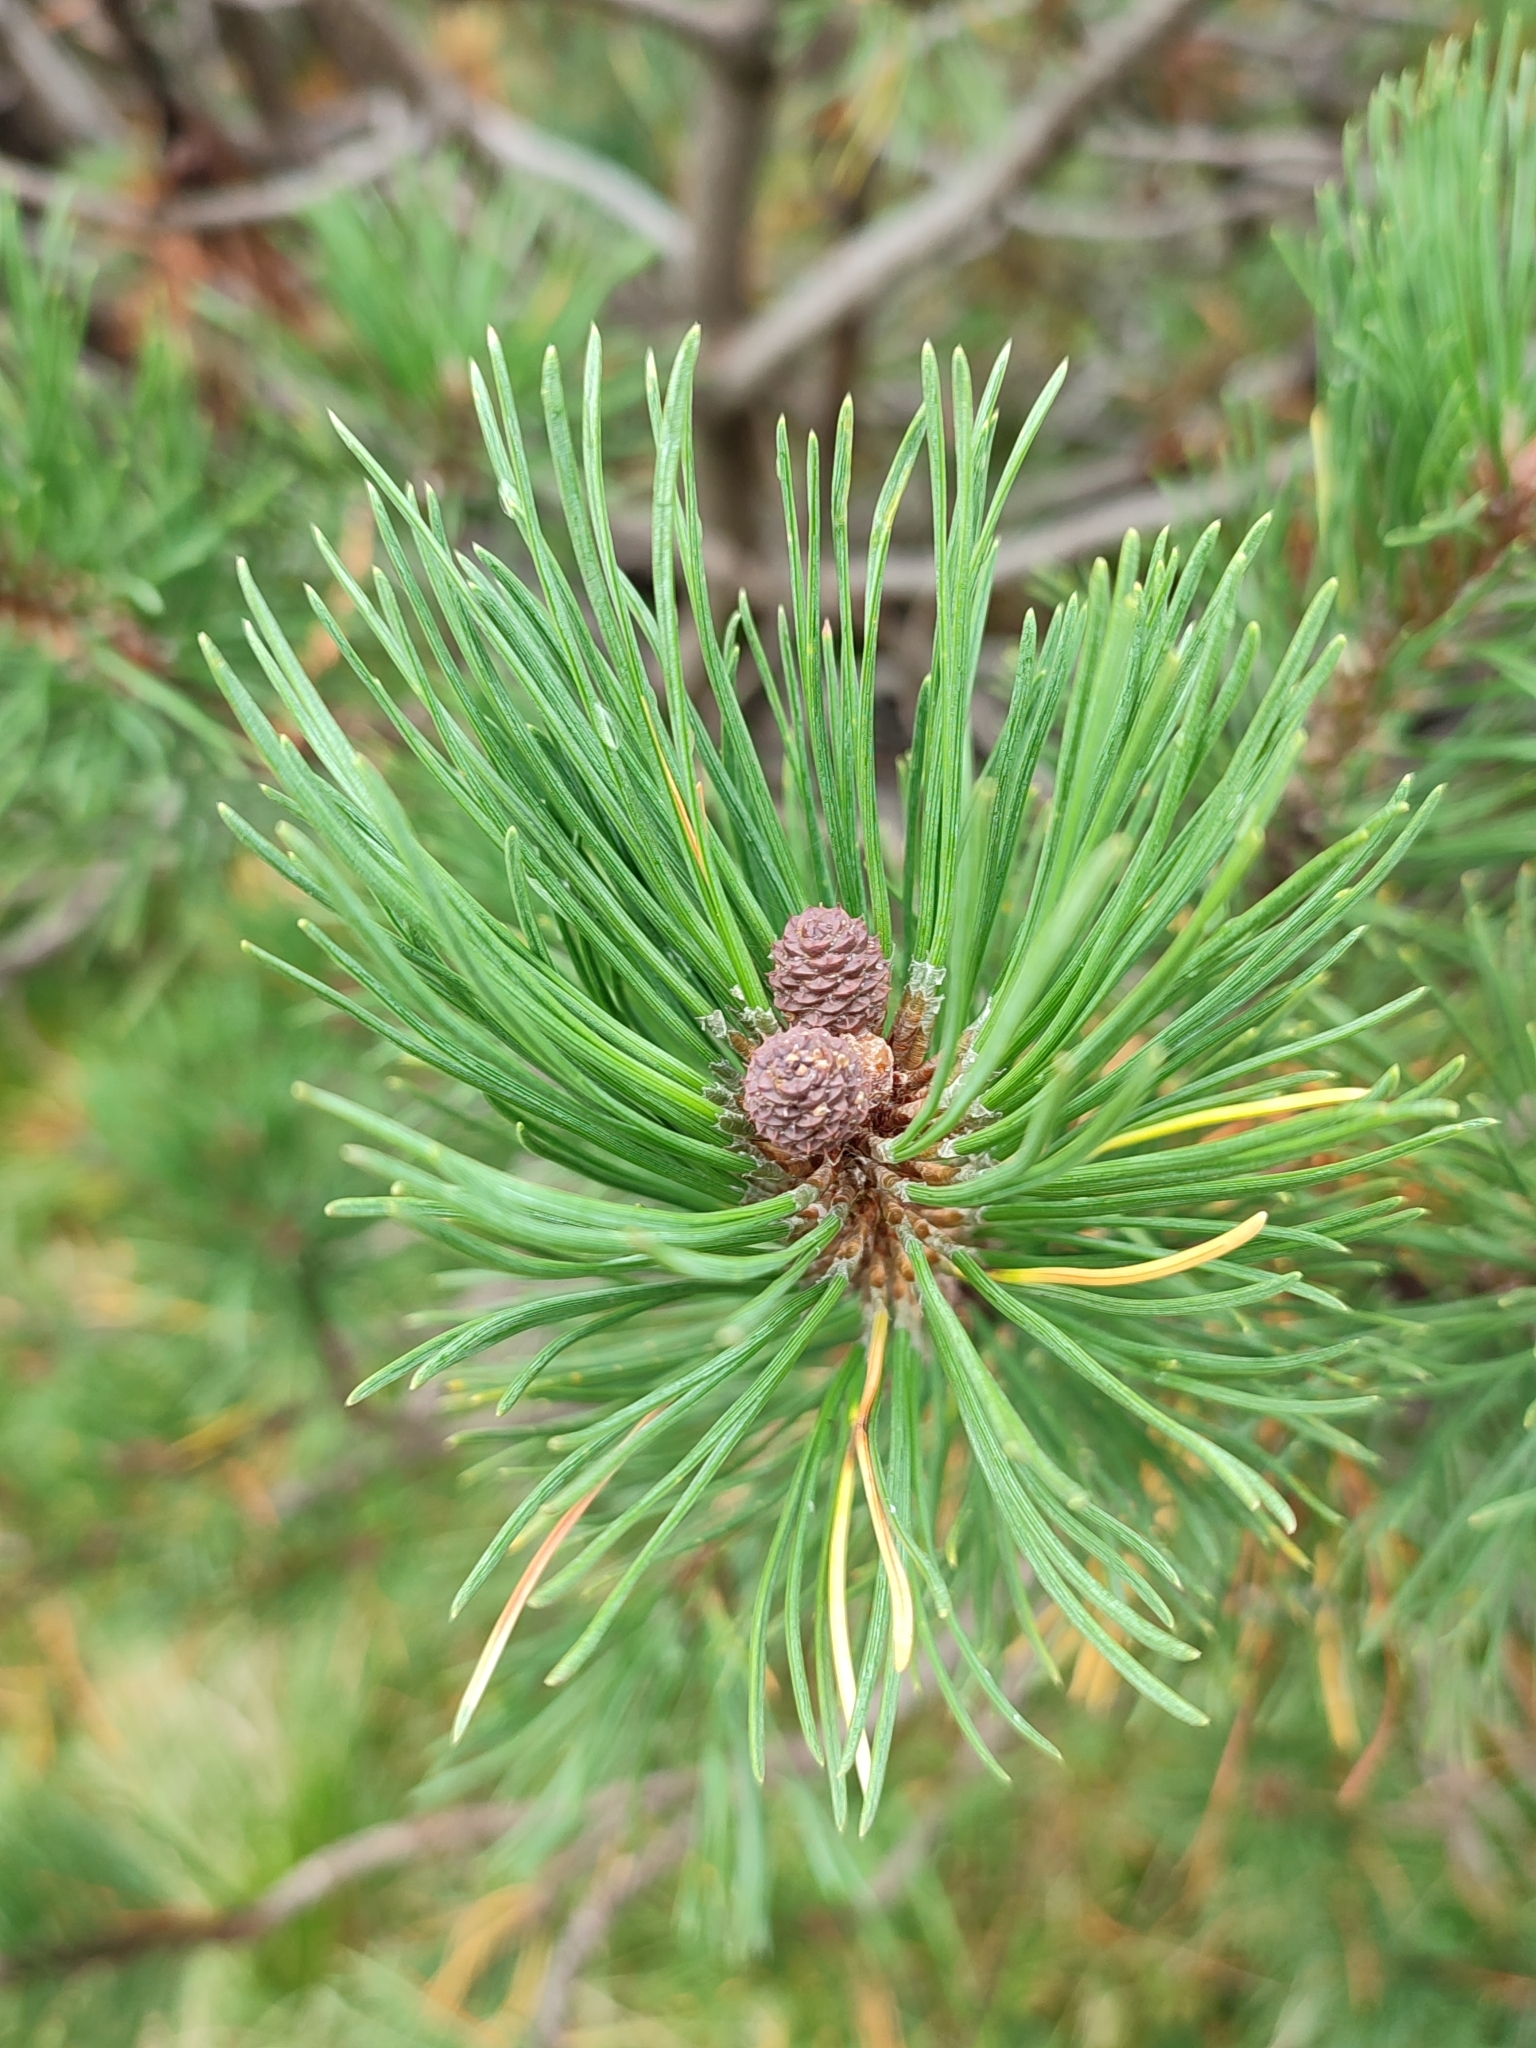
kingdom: Plantae
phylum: Tracheophyta
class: Pinopsida
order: Pinales
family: Pinaceae
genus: Pinus
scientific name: Pinus mugo
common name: Mugo pine
